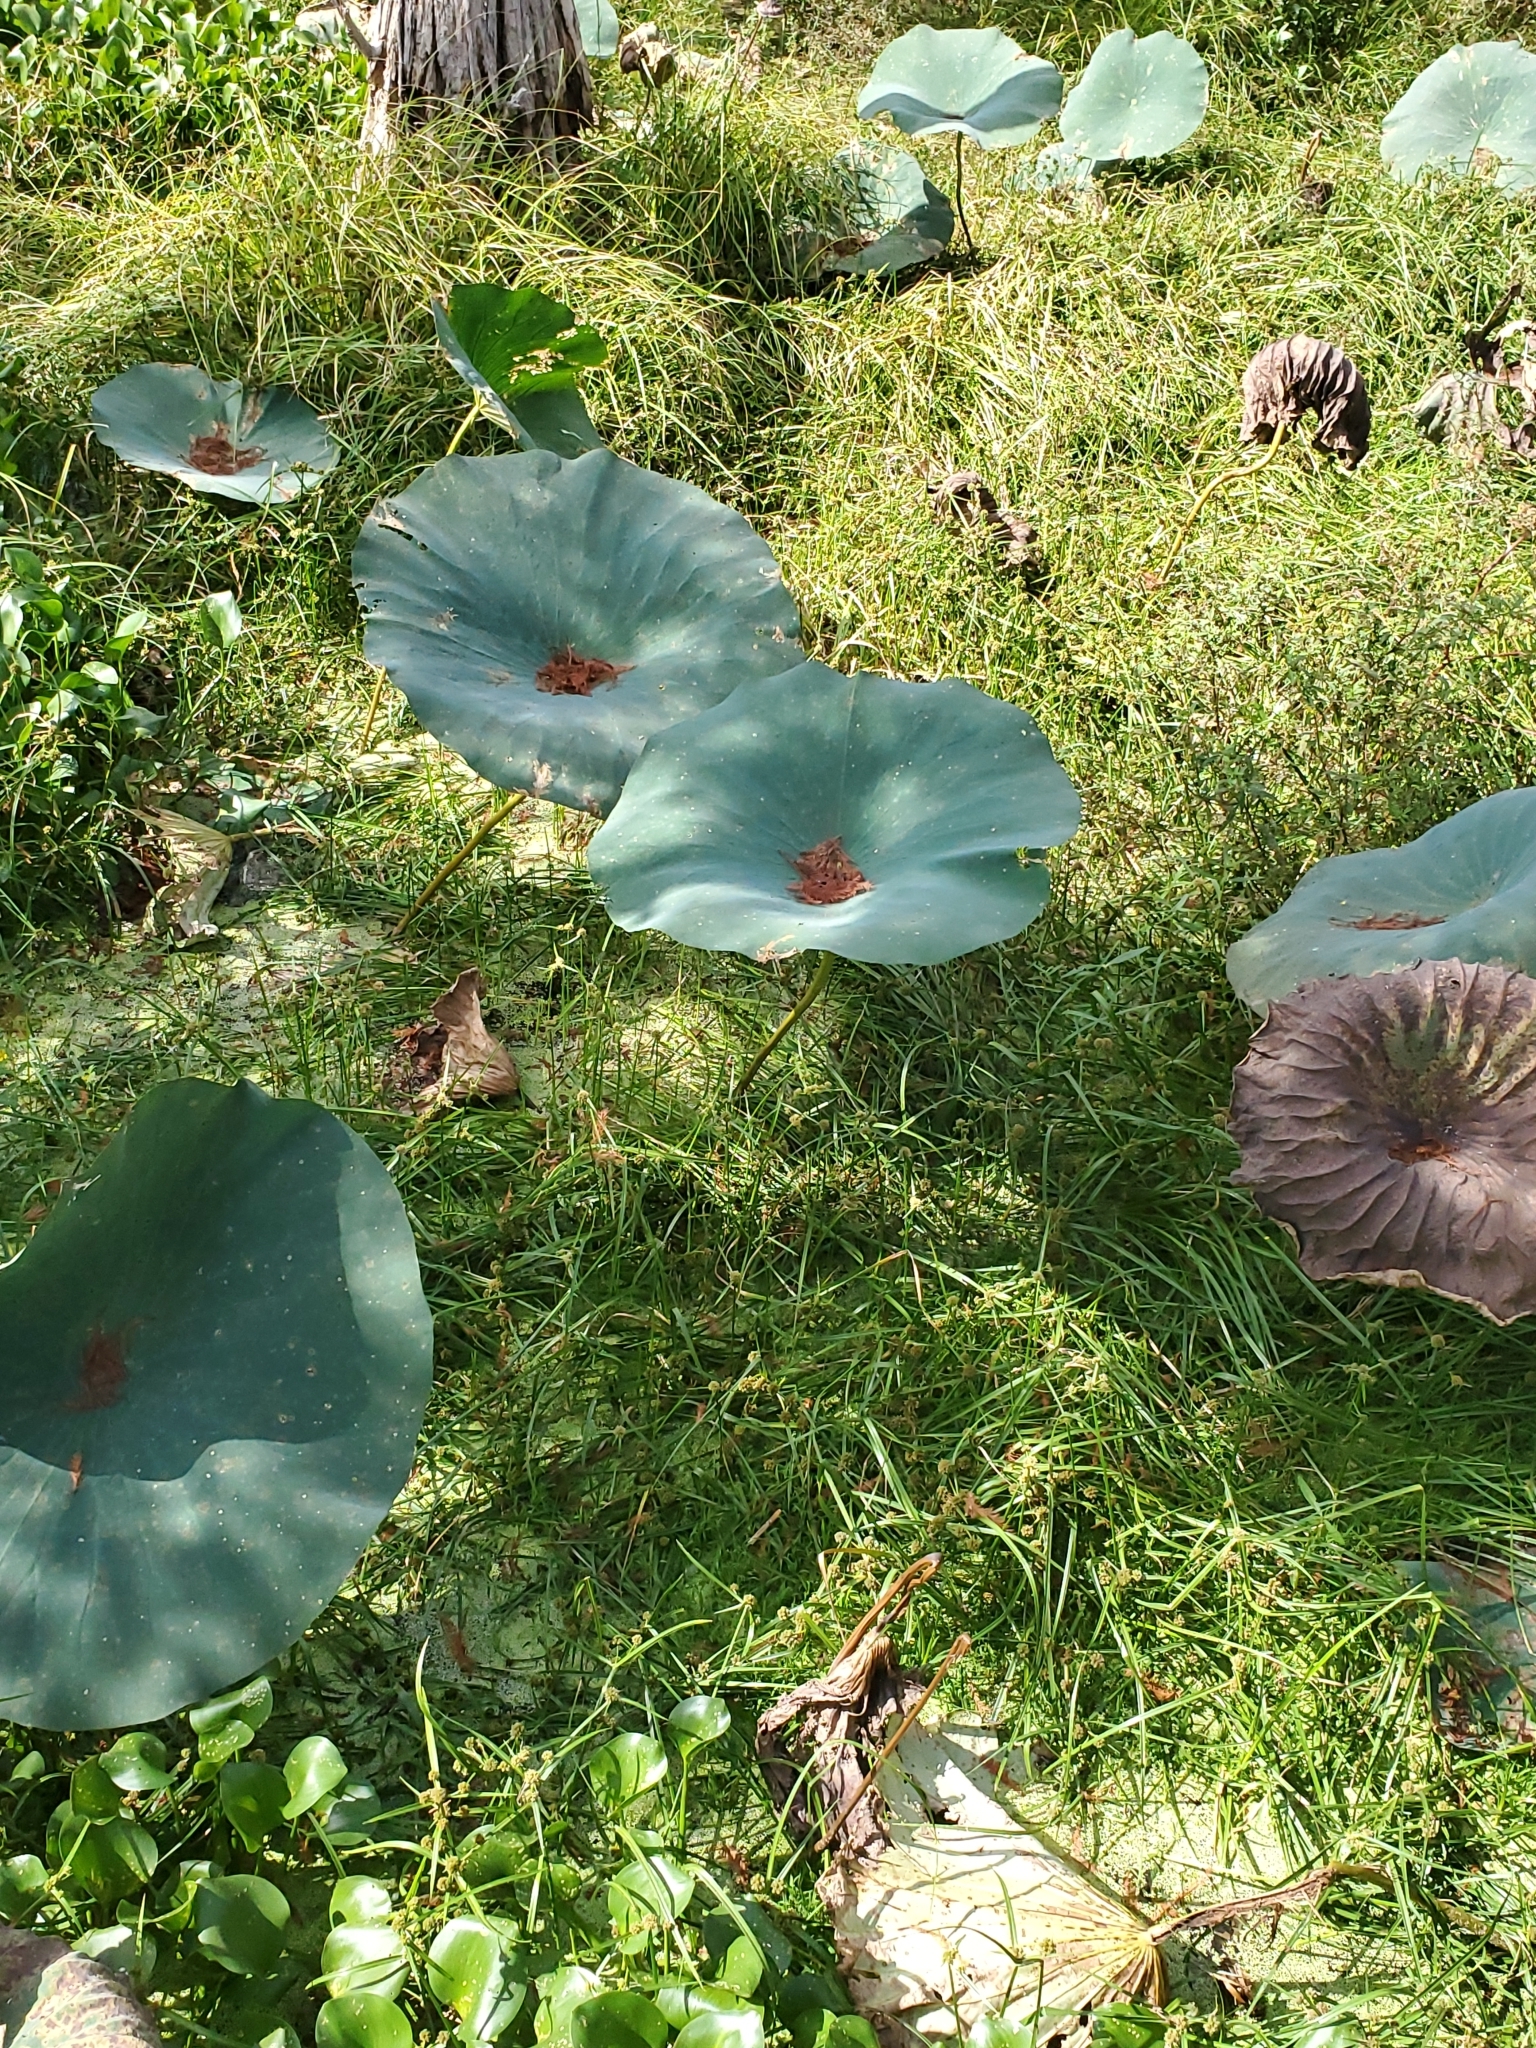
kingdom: Plantae
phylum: Tracheophyta
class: Magnoliopsida
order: Proteales
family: Nelumbonaceae
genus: Nelumbo
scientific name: Nelumbo lutea
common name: American lotus
